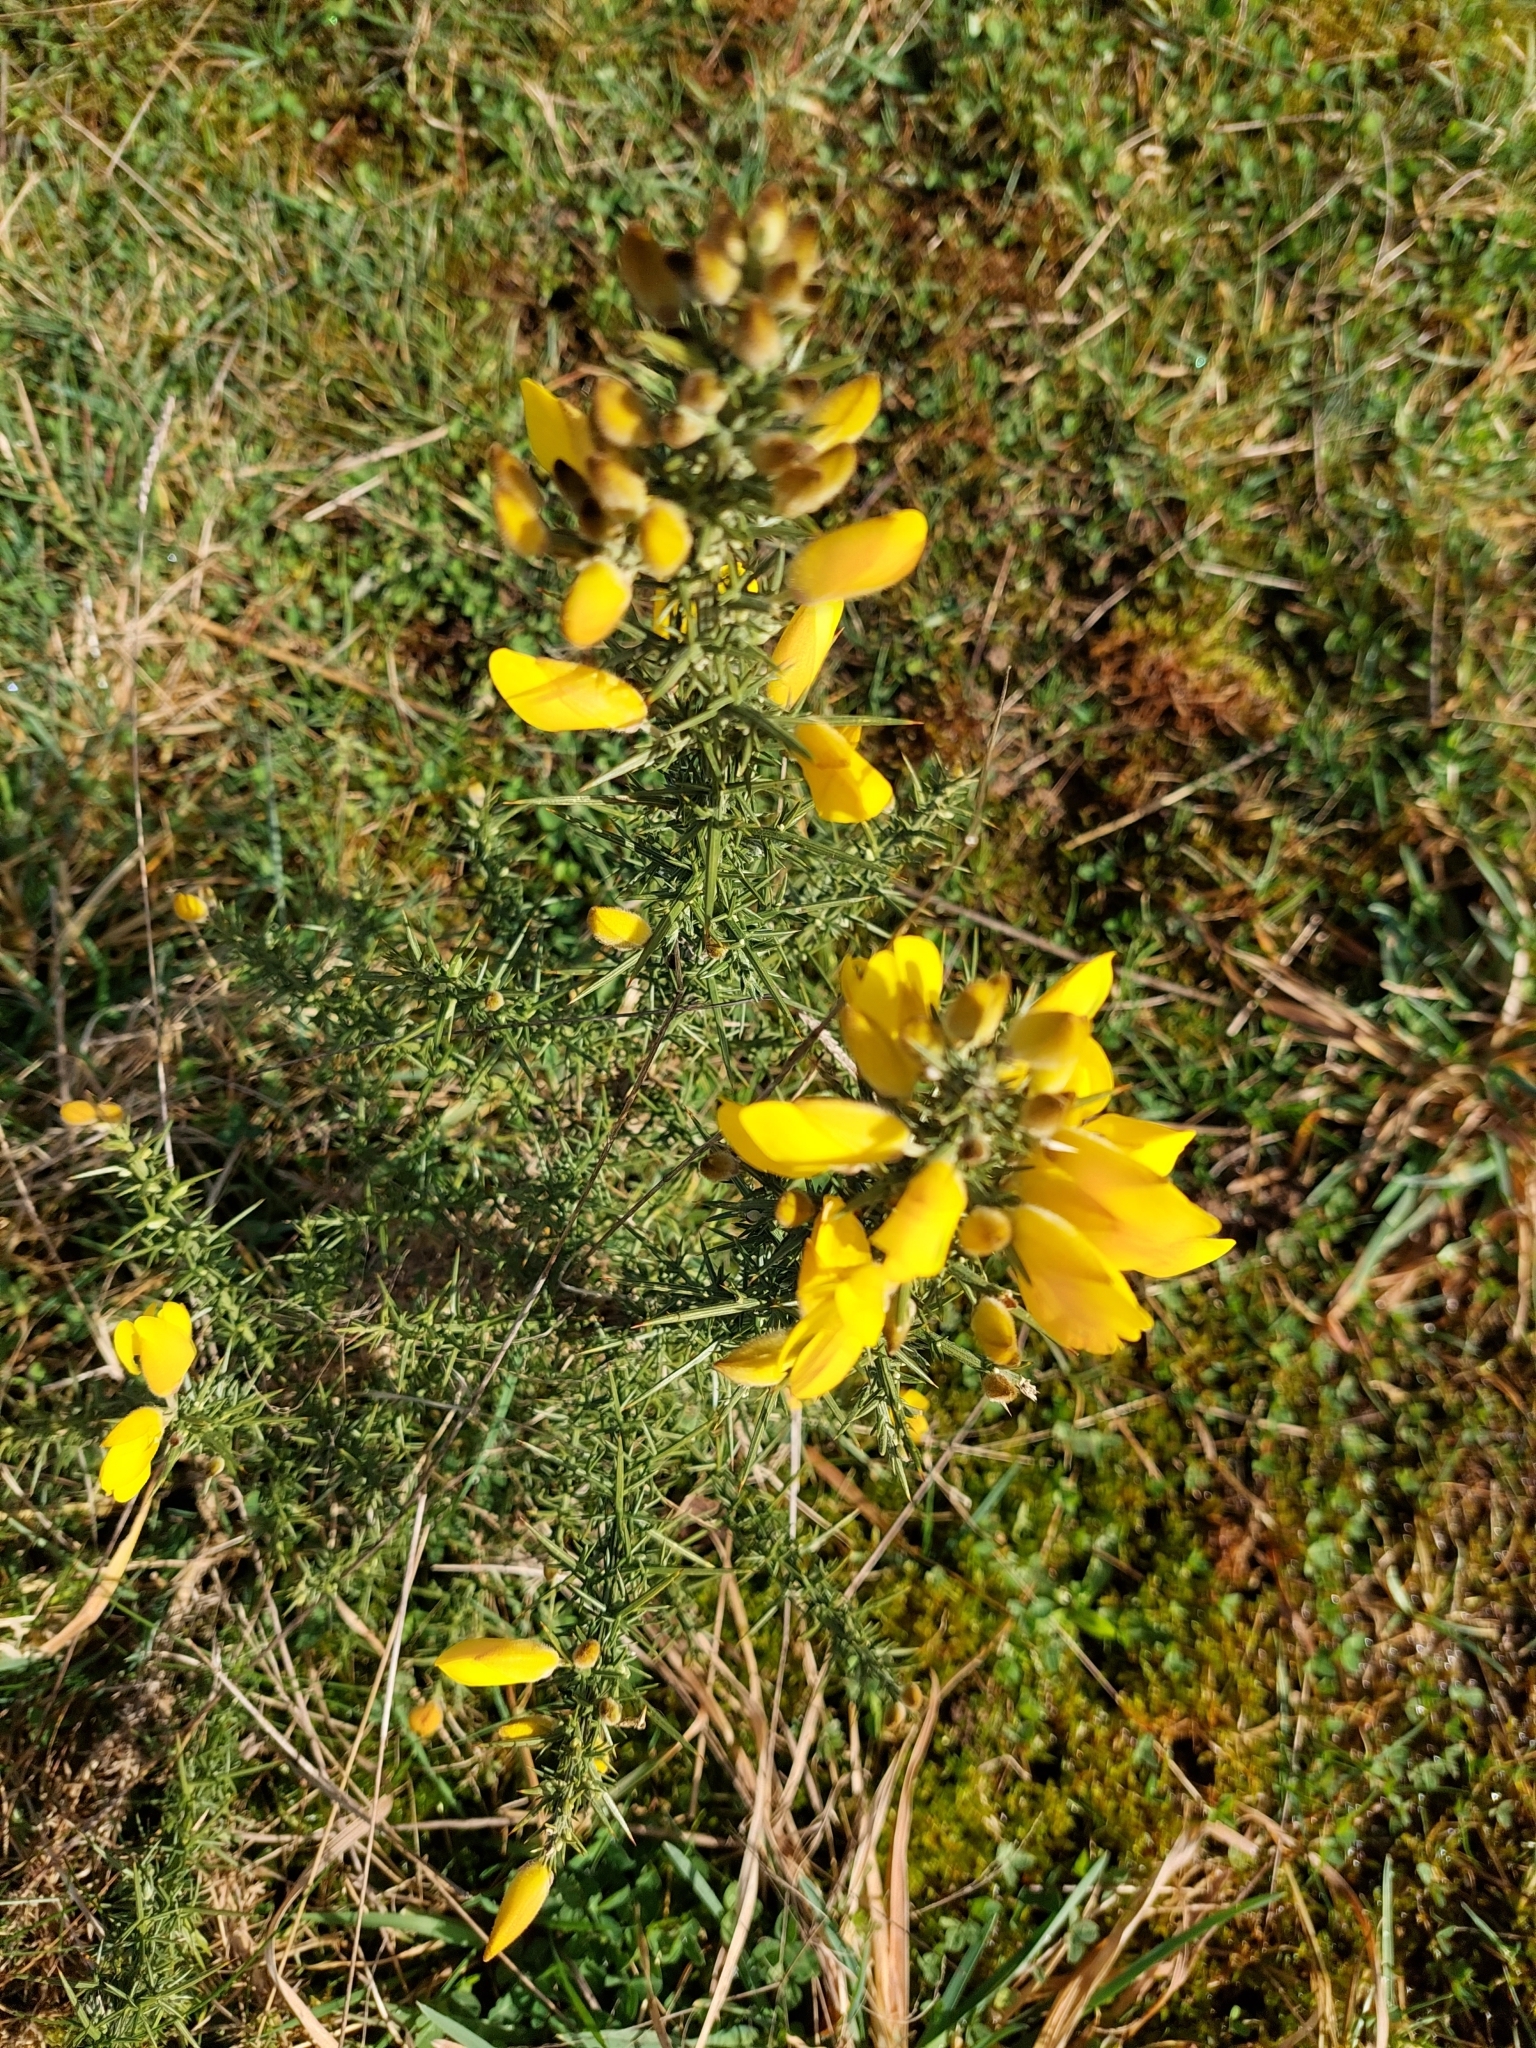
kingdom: Plantae
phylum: Tracheophyta
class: Magnoliopsida
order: Fabales
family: Fabaceae
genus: Ulex
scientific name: Ulex europaeus
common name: Common gorse
